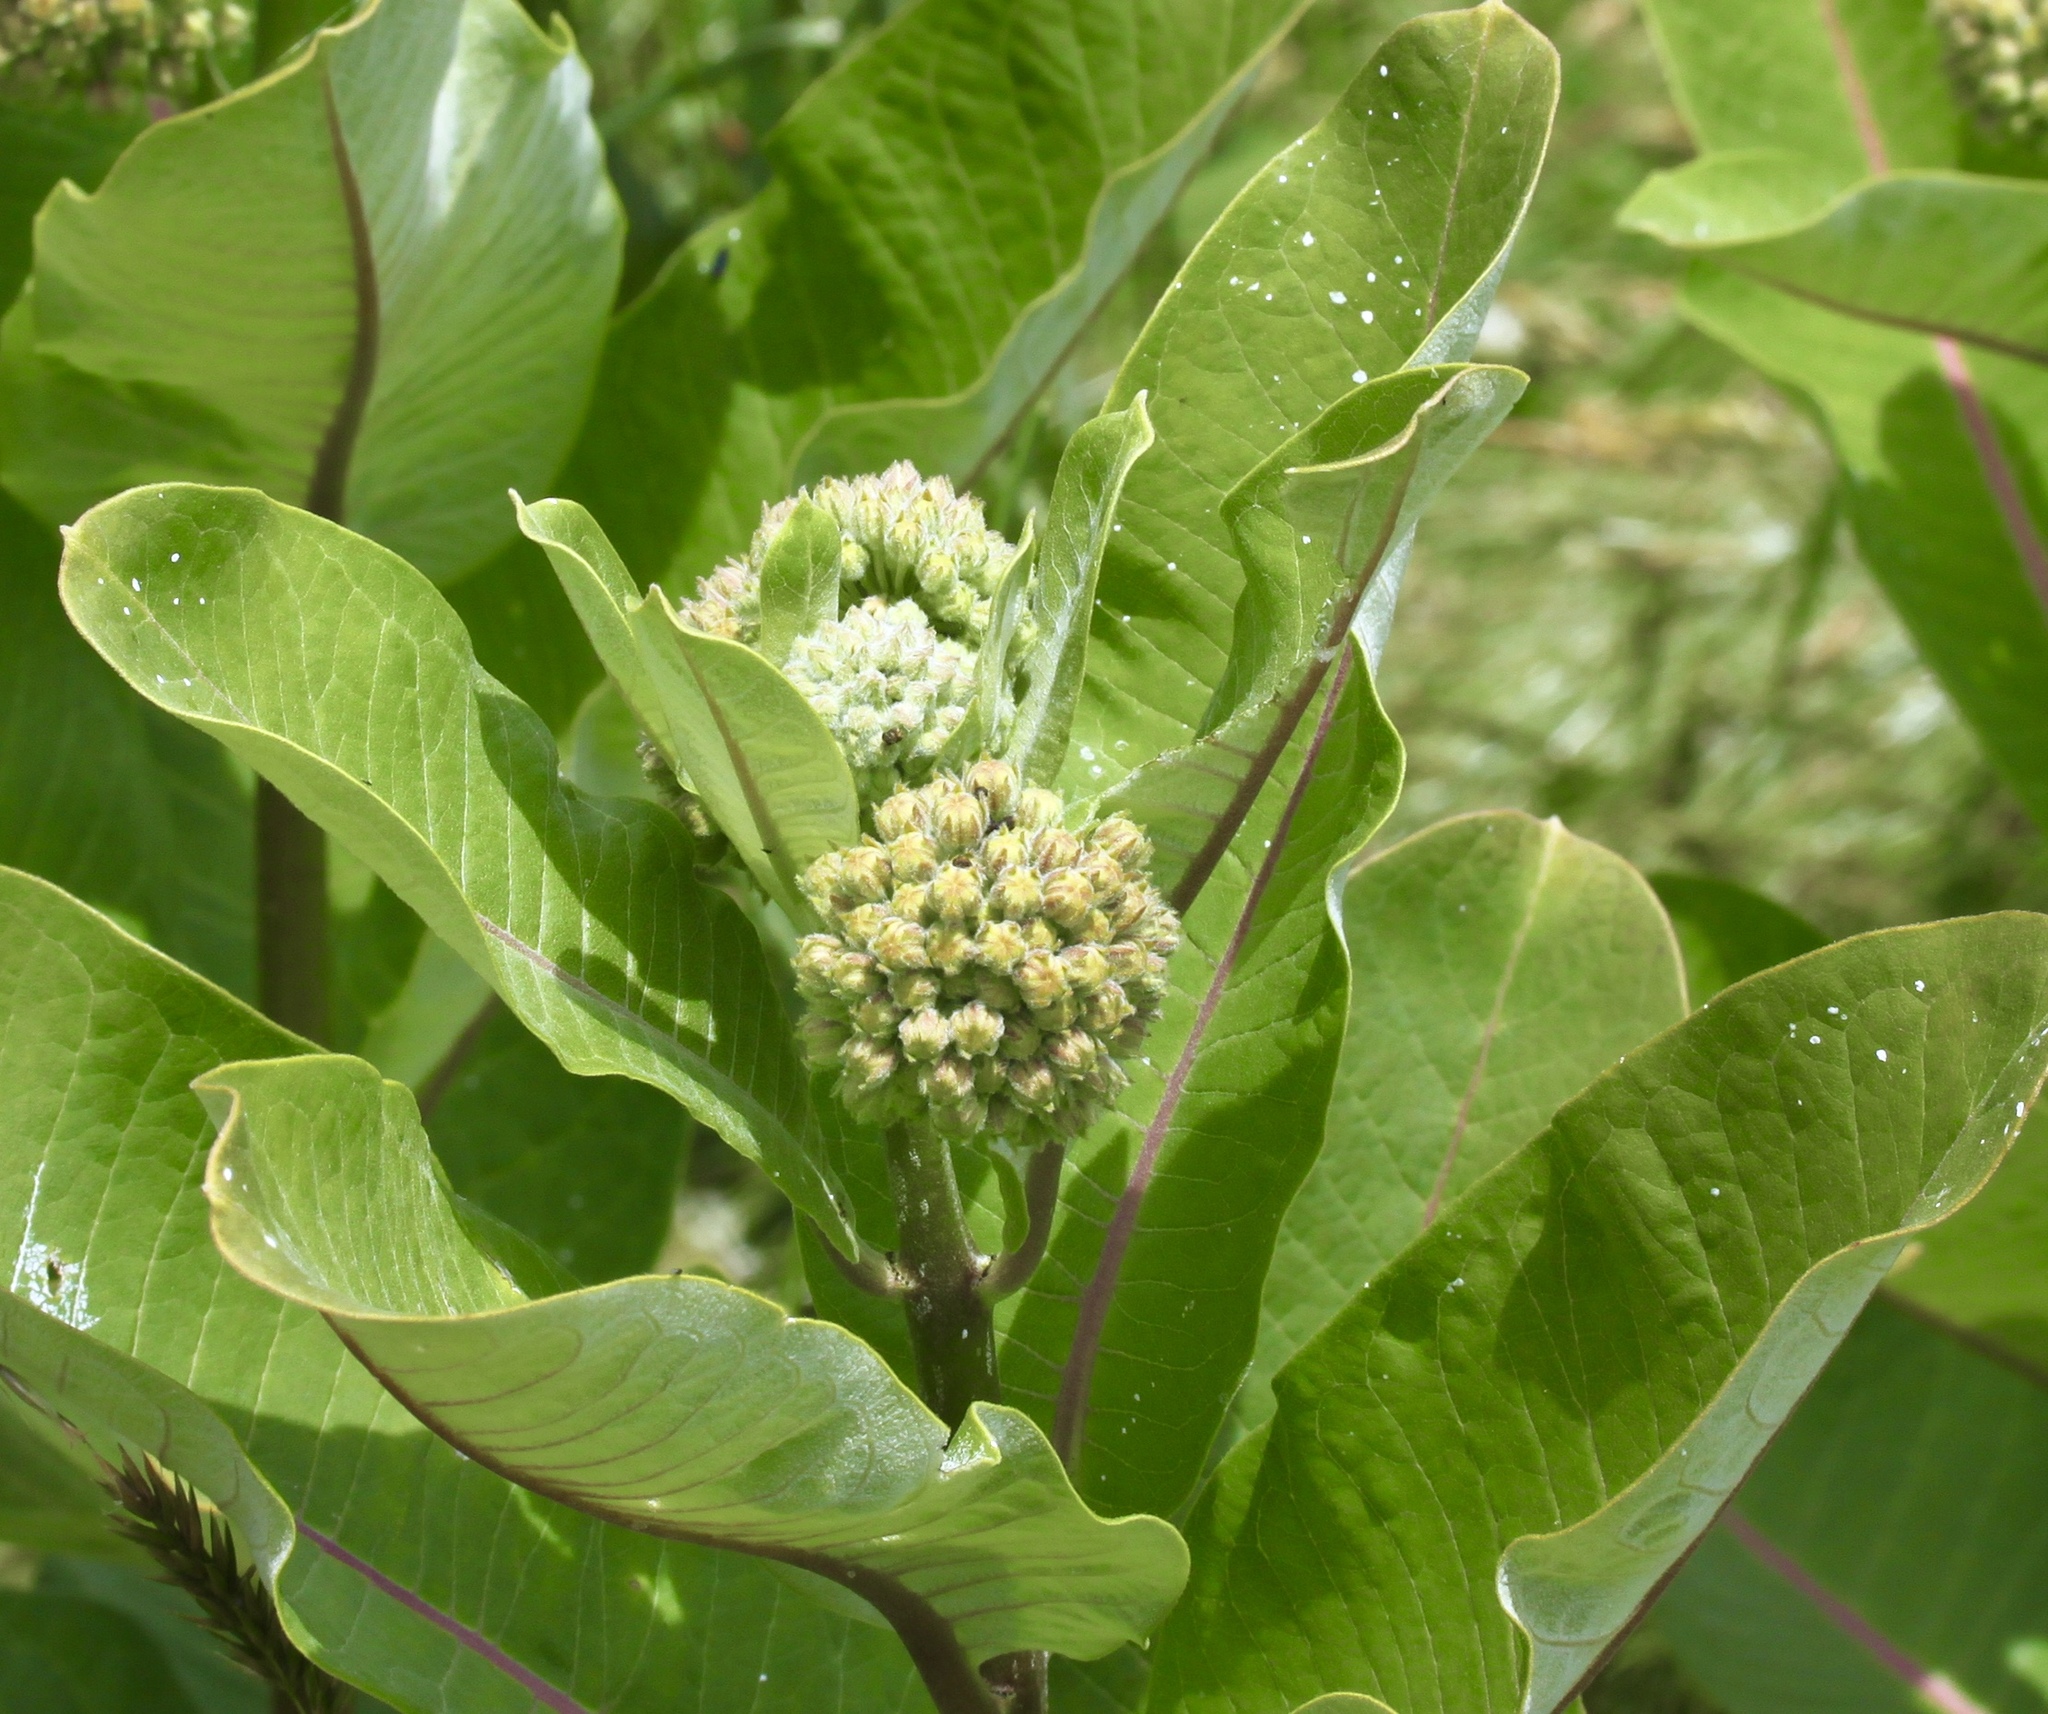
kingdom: Plantae
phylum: Tracheophyta
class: Magnoliopsida
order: Gentianales
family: Apocynaceae
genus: Asclepias
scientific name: Asclepias syriaca
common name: Common milkweed
